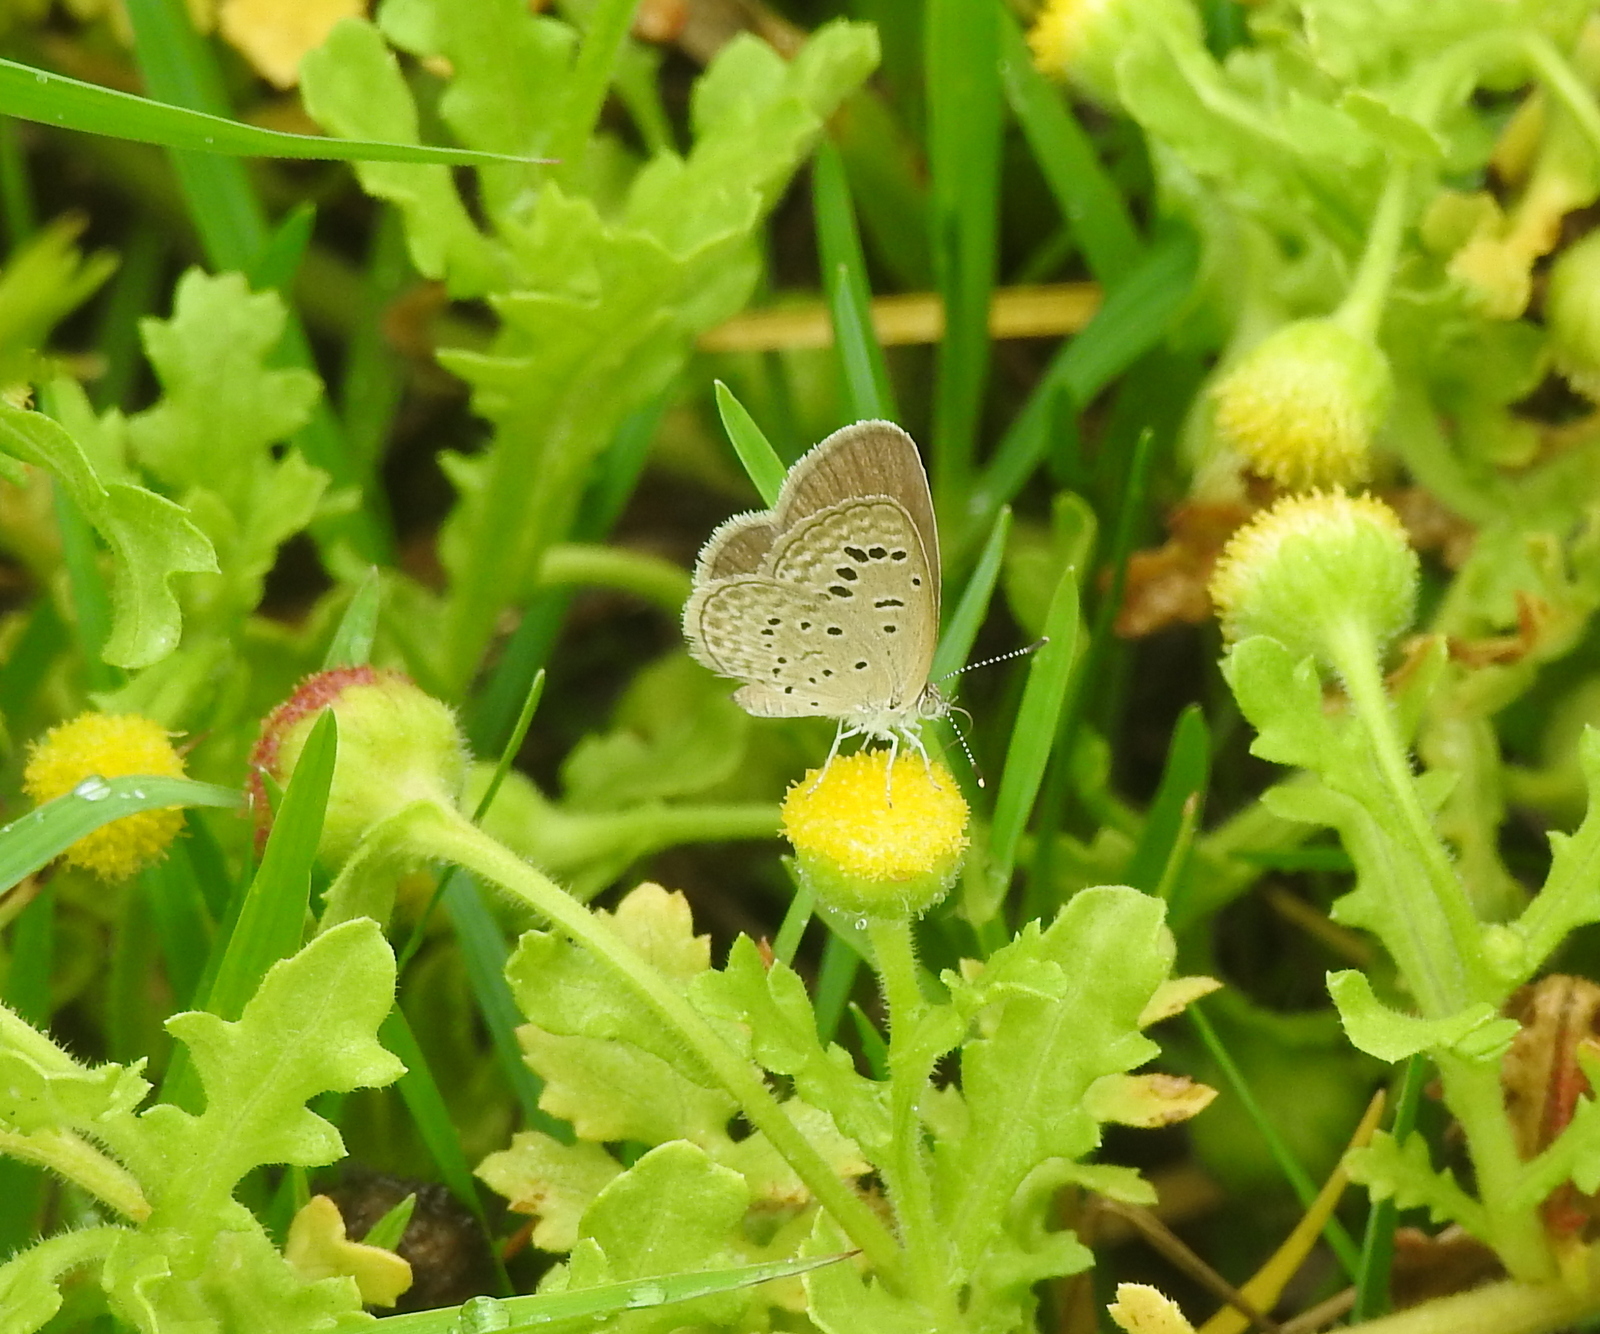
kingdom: Animalia
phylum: Arthropoda
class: Insecta
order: Lepidoptera
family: Lycaenidae
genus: Zizeeria
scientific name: Zizeeria karsandra
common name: Dark grass blue
